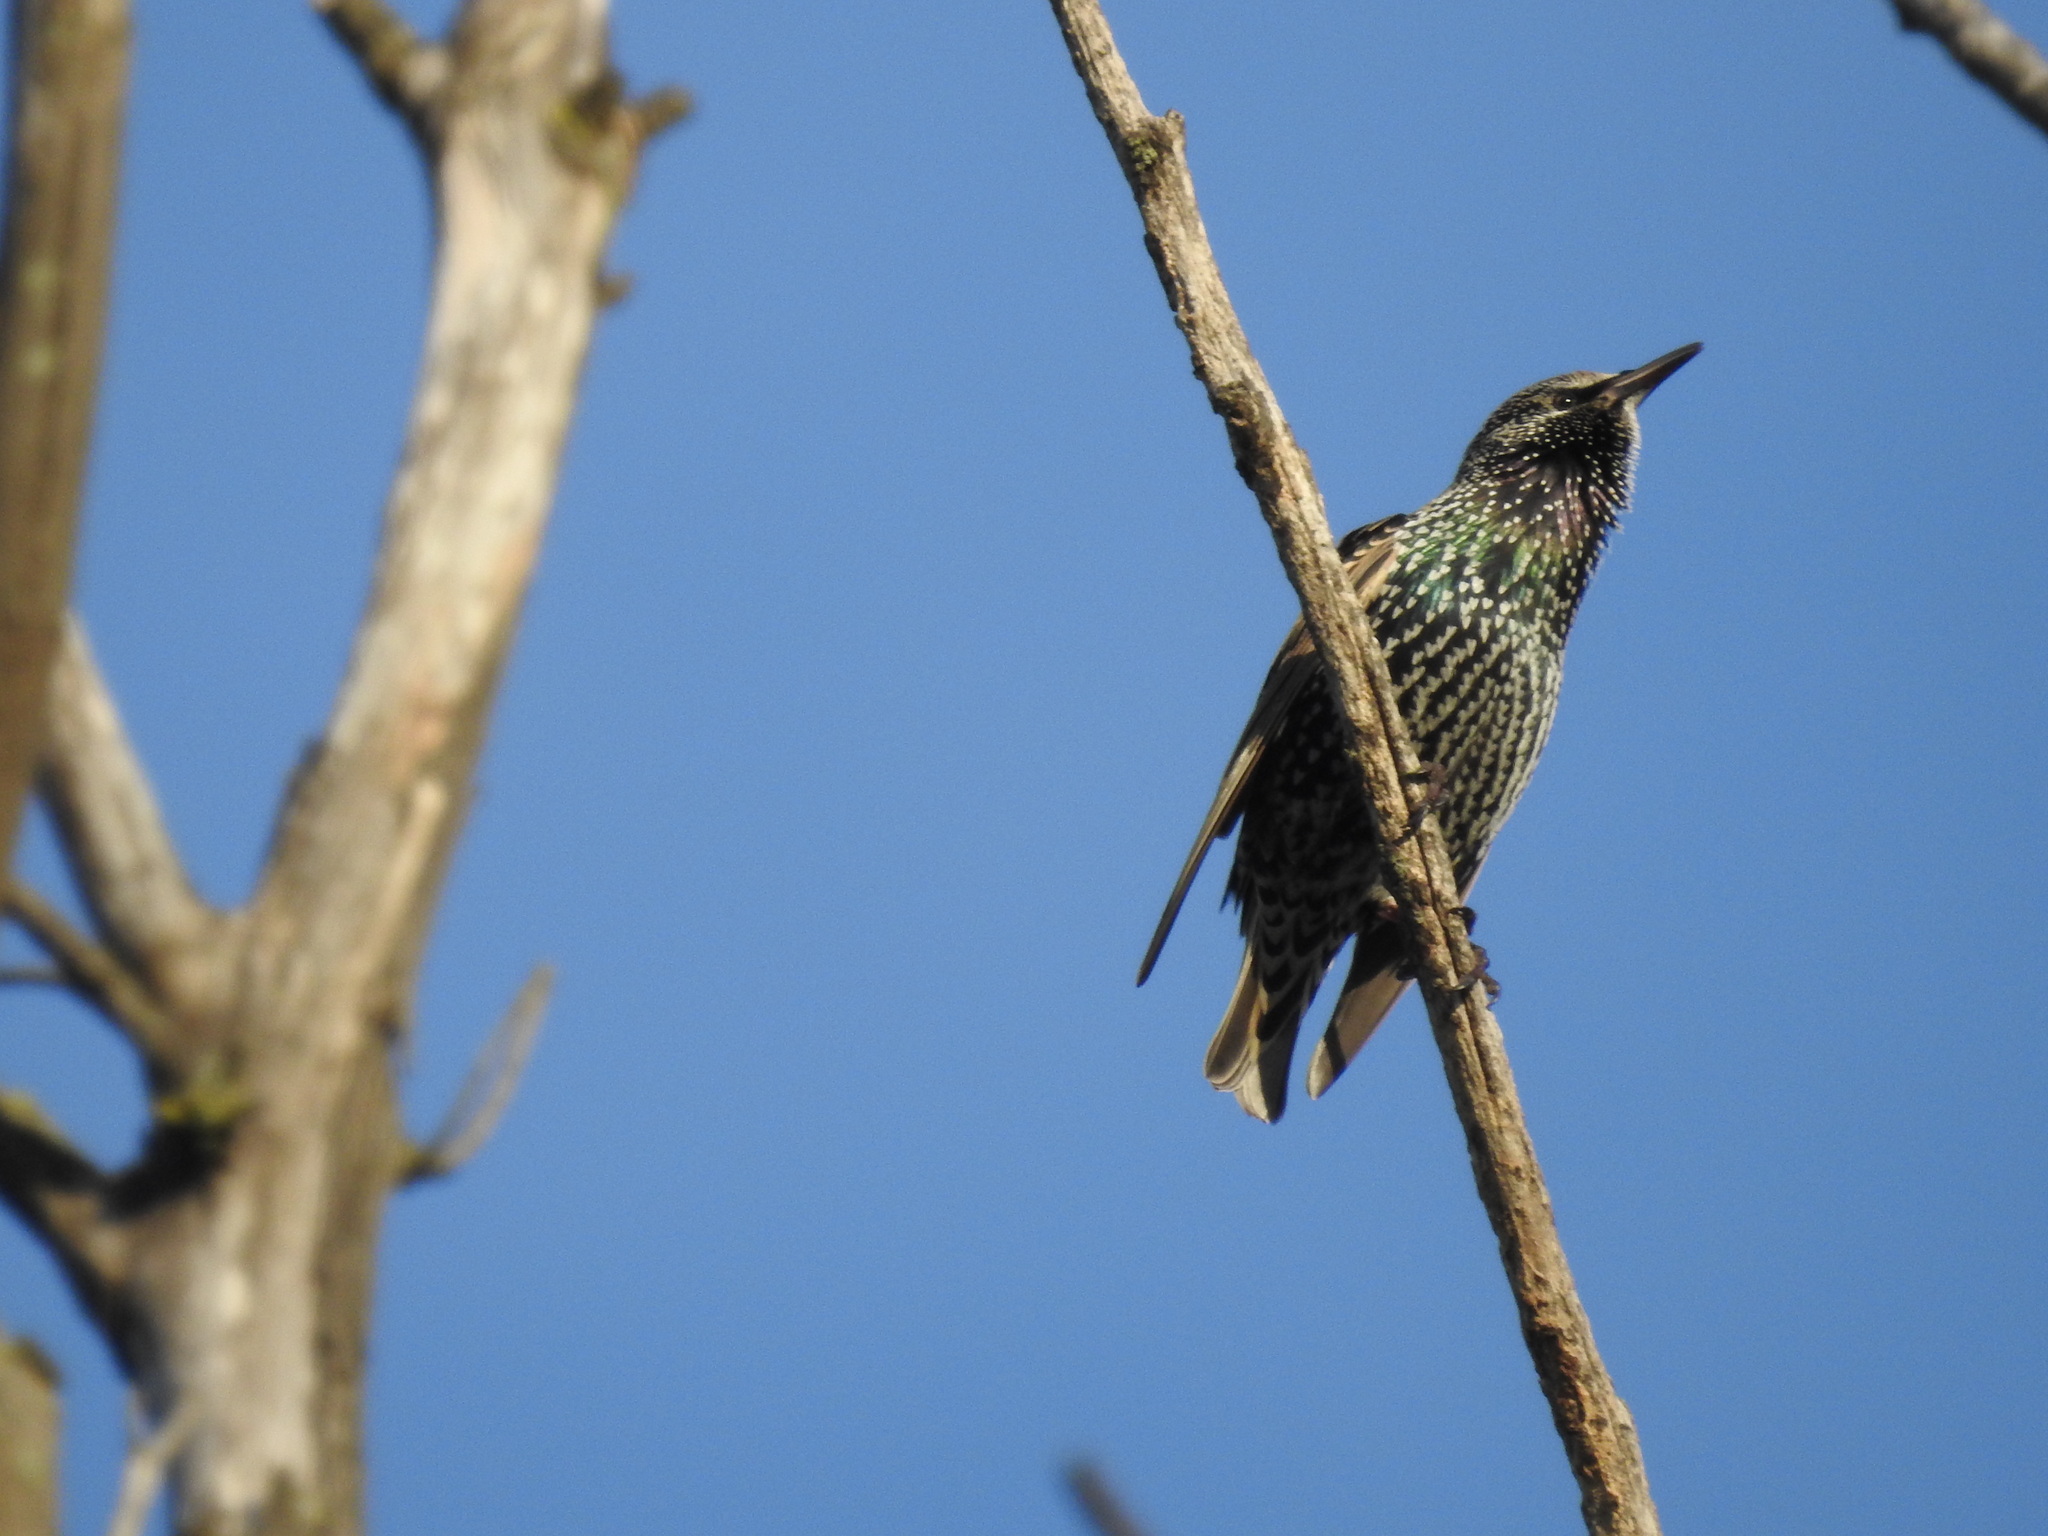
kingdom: Animalia
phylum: Chordata
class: Aves
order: Passeriformes
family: Sturnidae
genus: Sturnus
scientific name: Sturnus vulgaris
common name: Common starling
